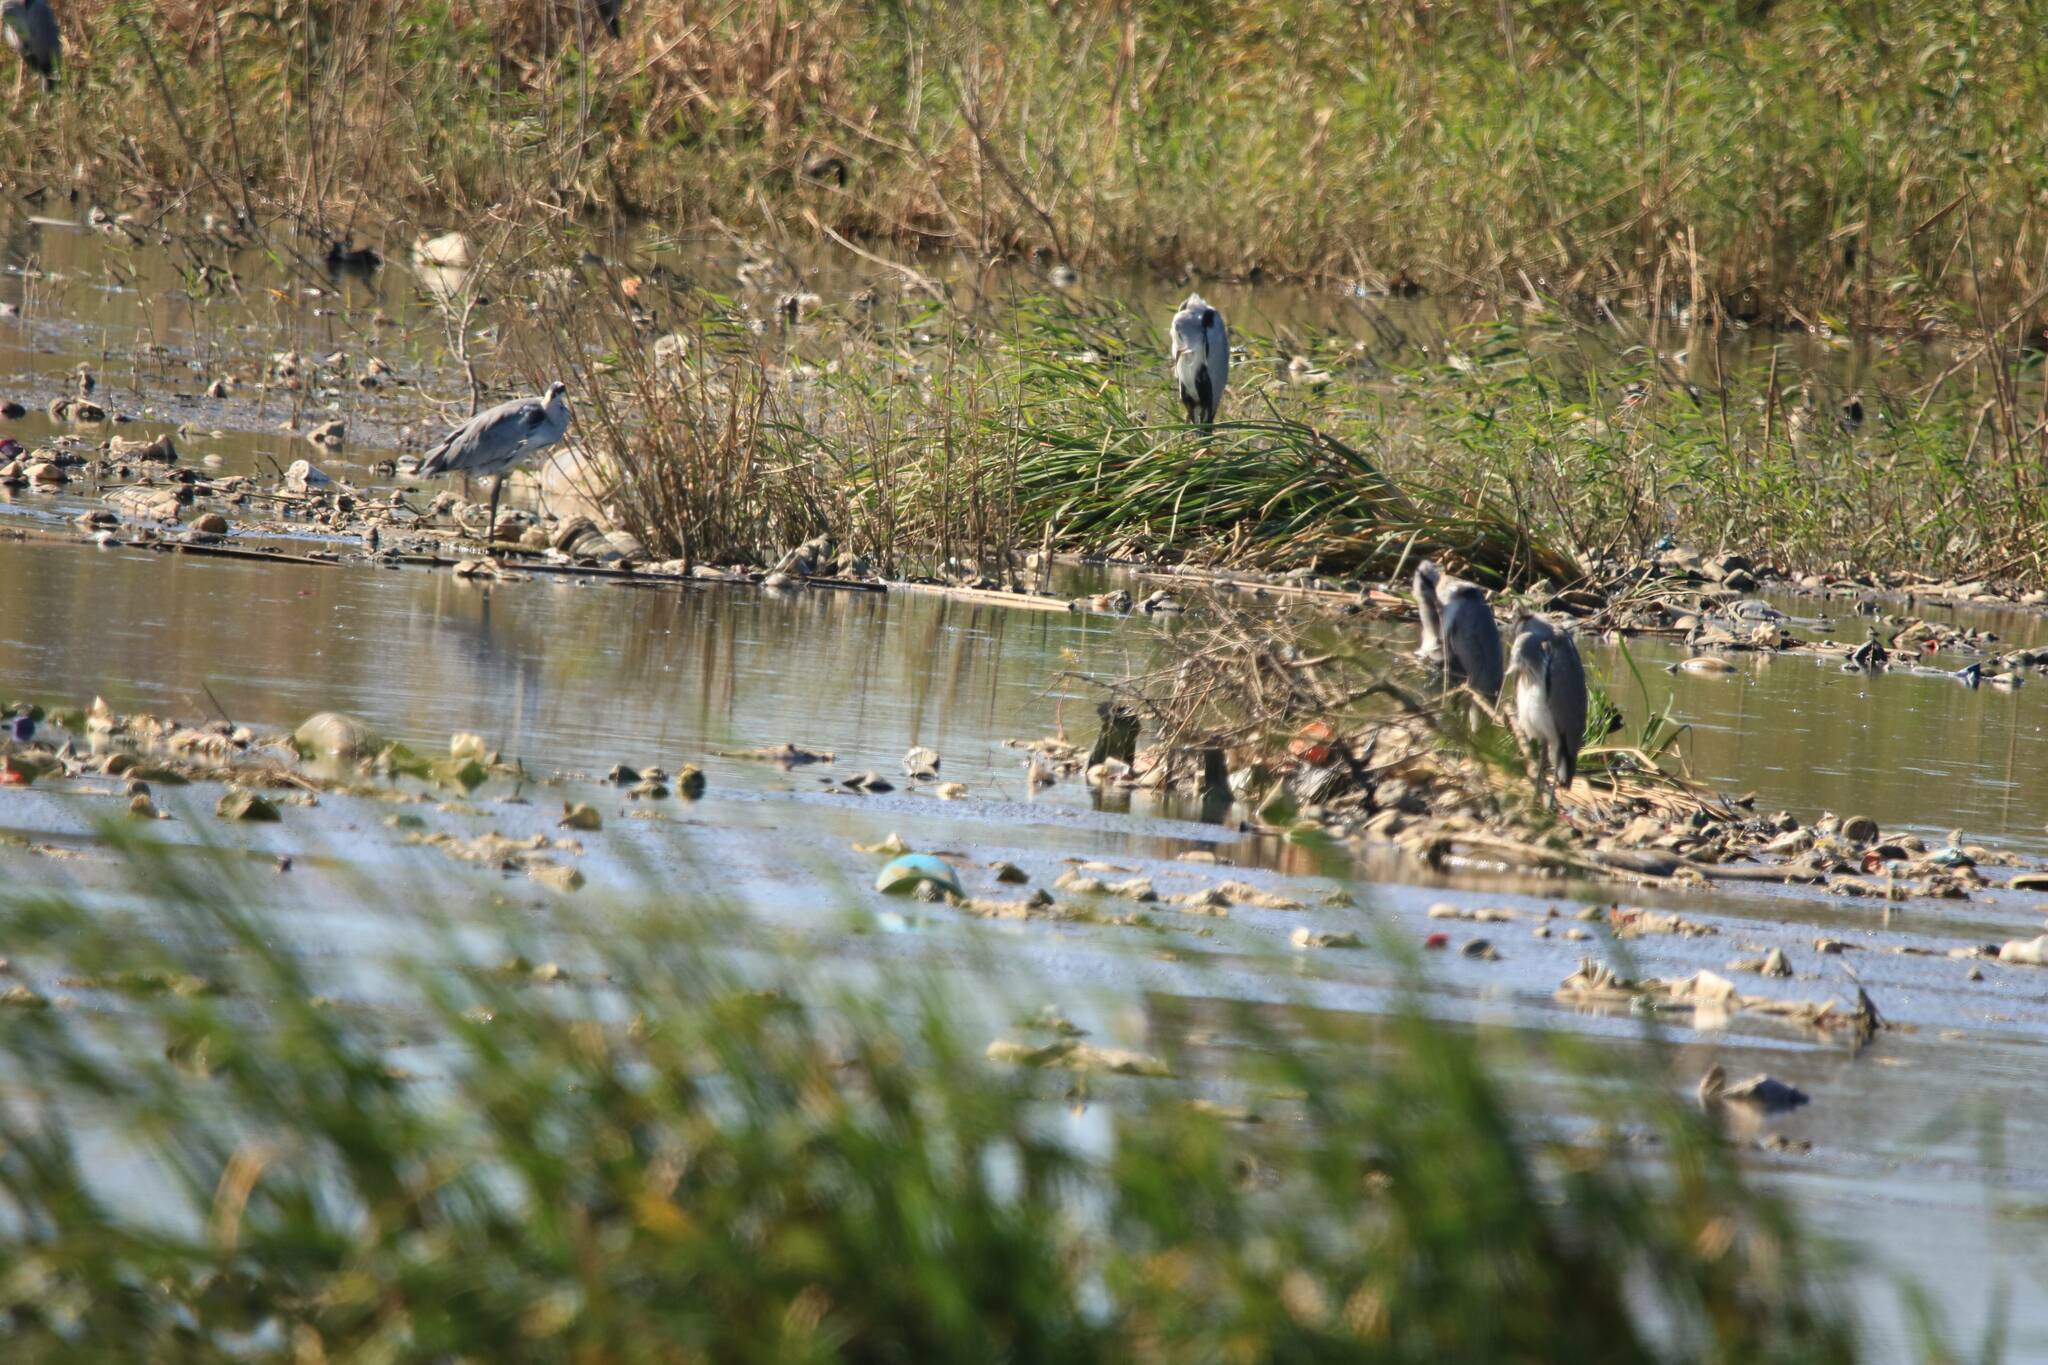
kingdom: Animalia
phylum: Chordata
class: Aves
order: Pelecaniformes
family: Ardeidae
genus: Ardea
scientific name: Ardea cinerea
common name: Grey heron
